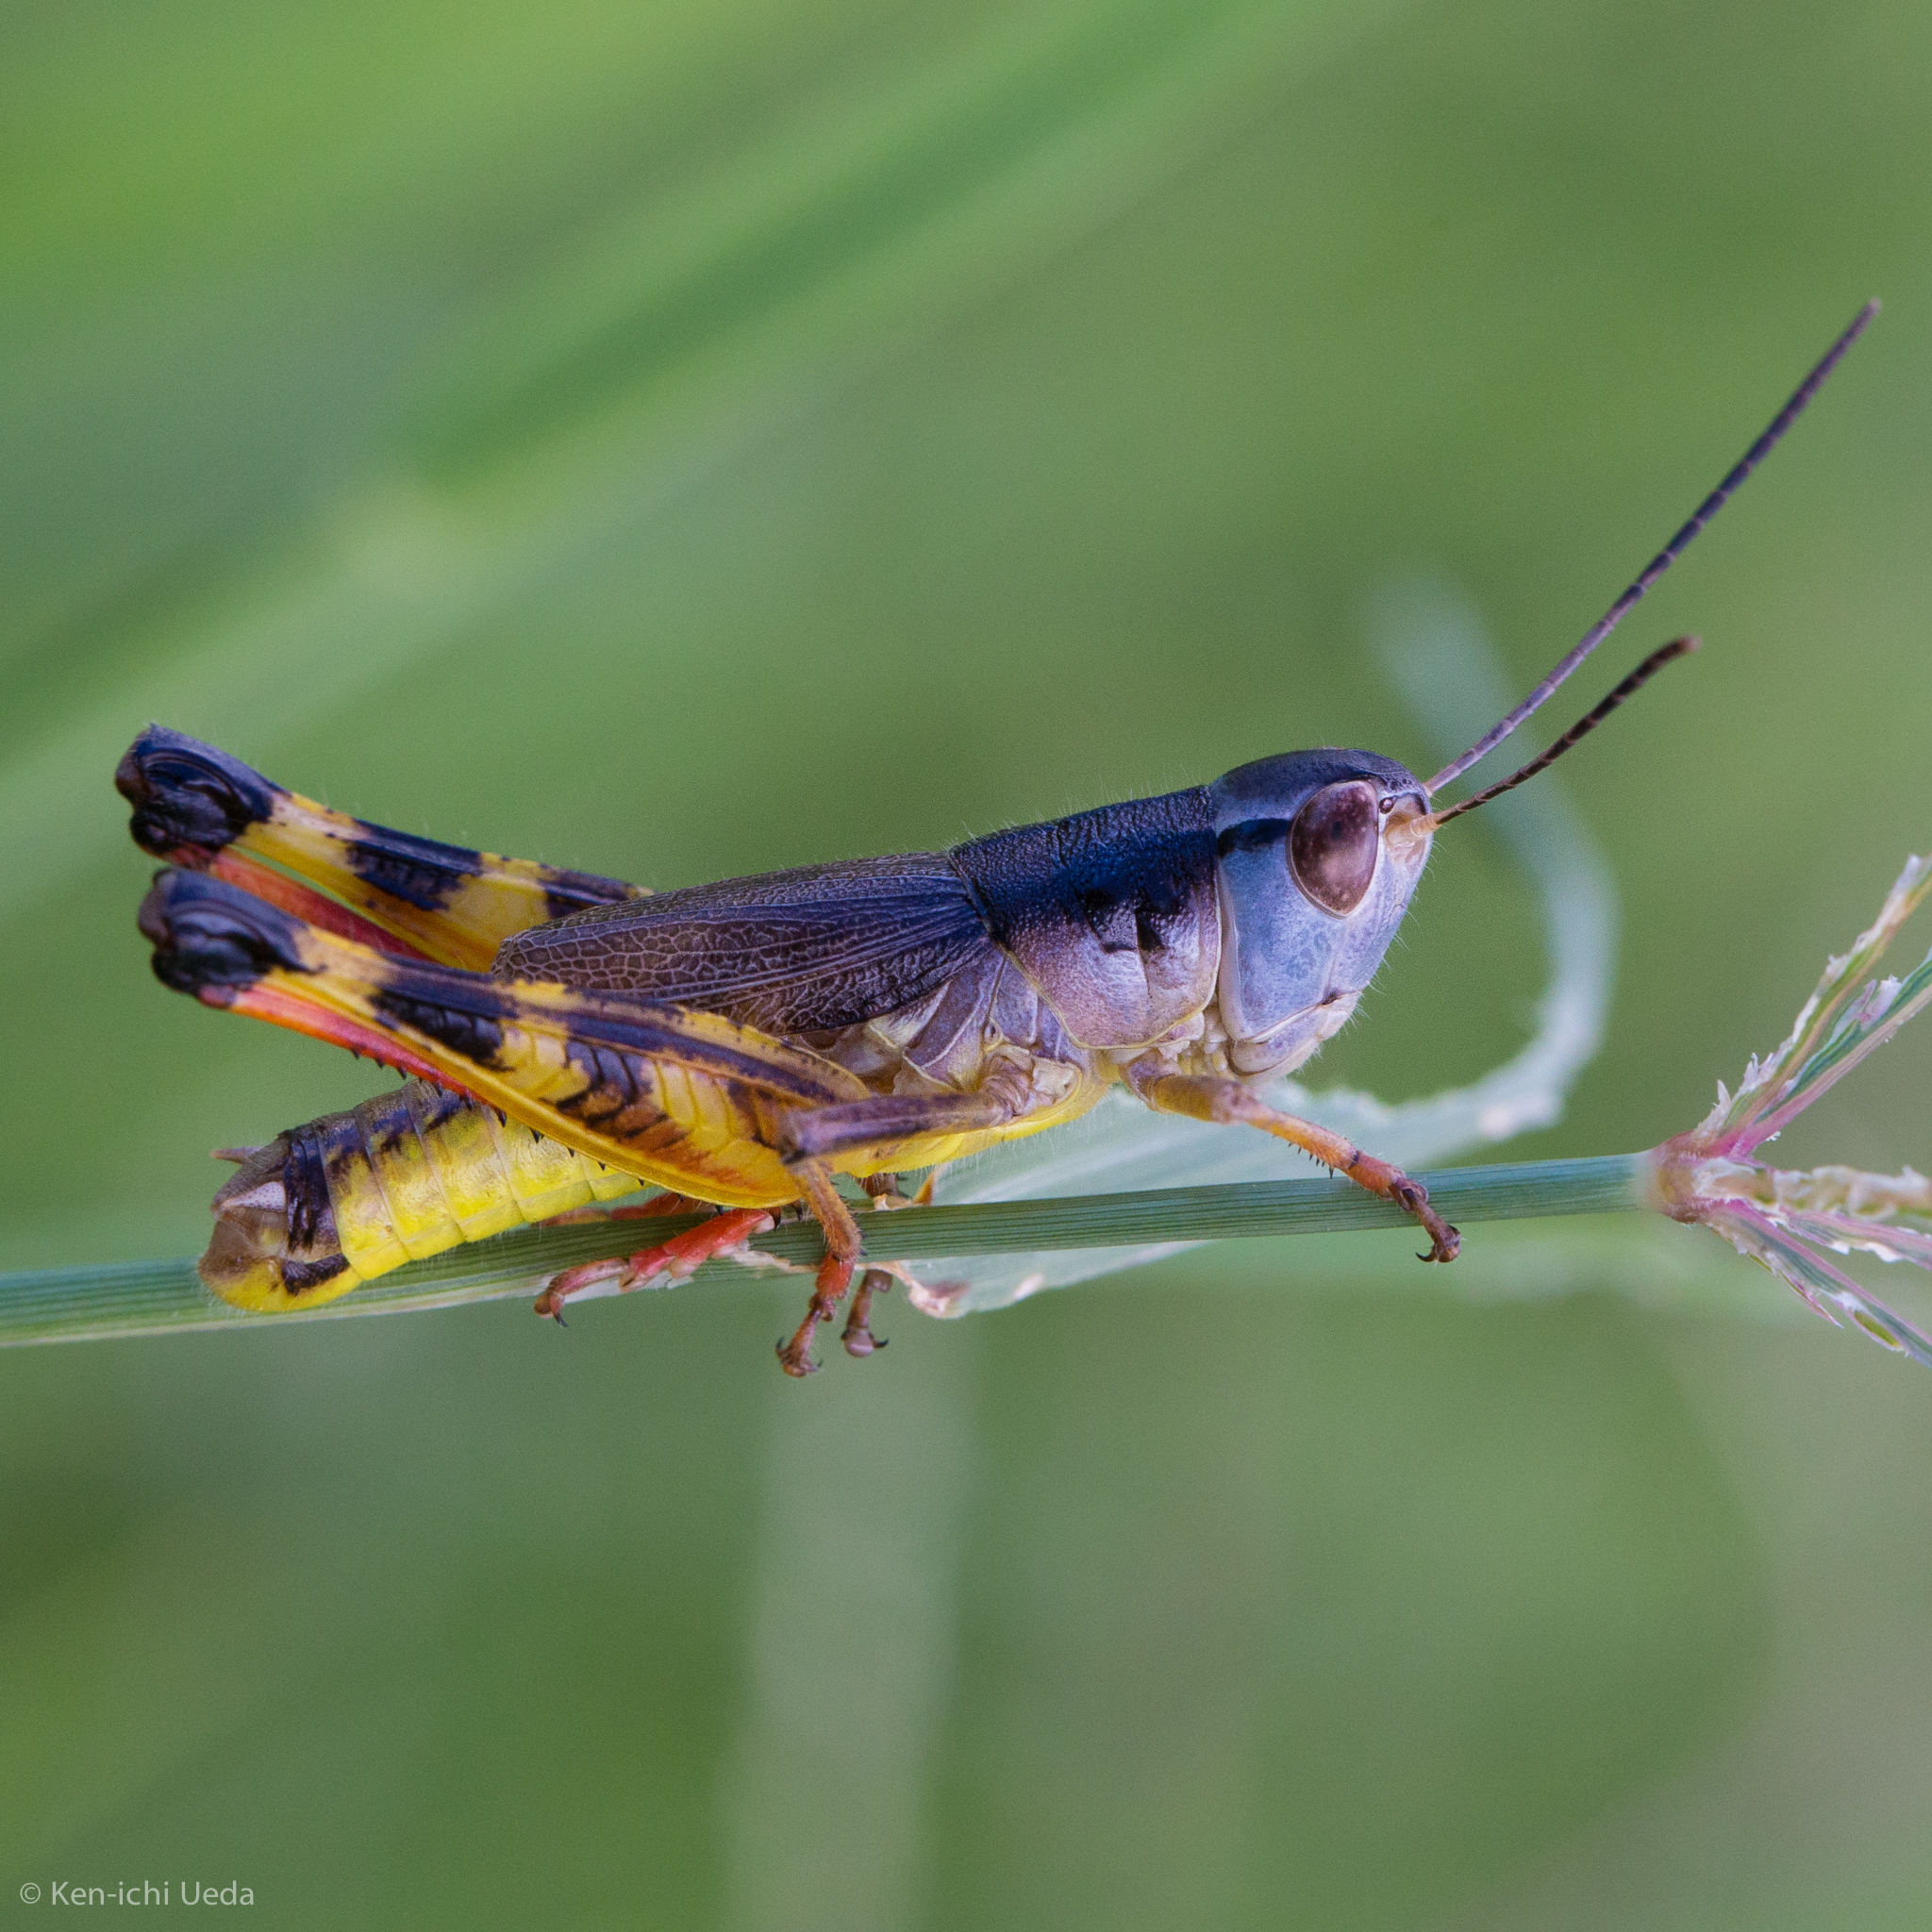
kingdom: Animalia
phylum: Arthropoda
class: Insecta
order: Orthoptera
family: Acrididae
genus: Boopedon
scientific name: Boopedon flaviventris
